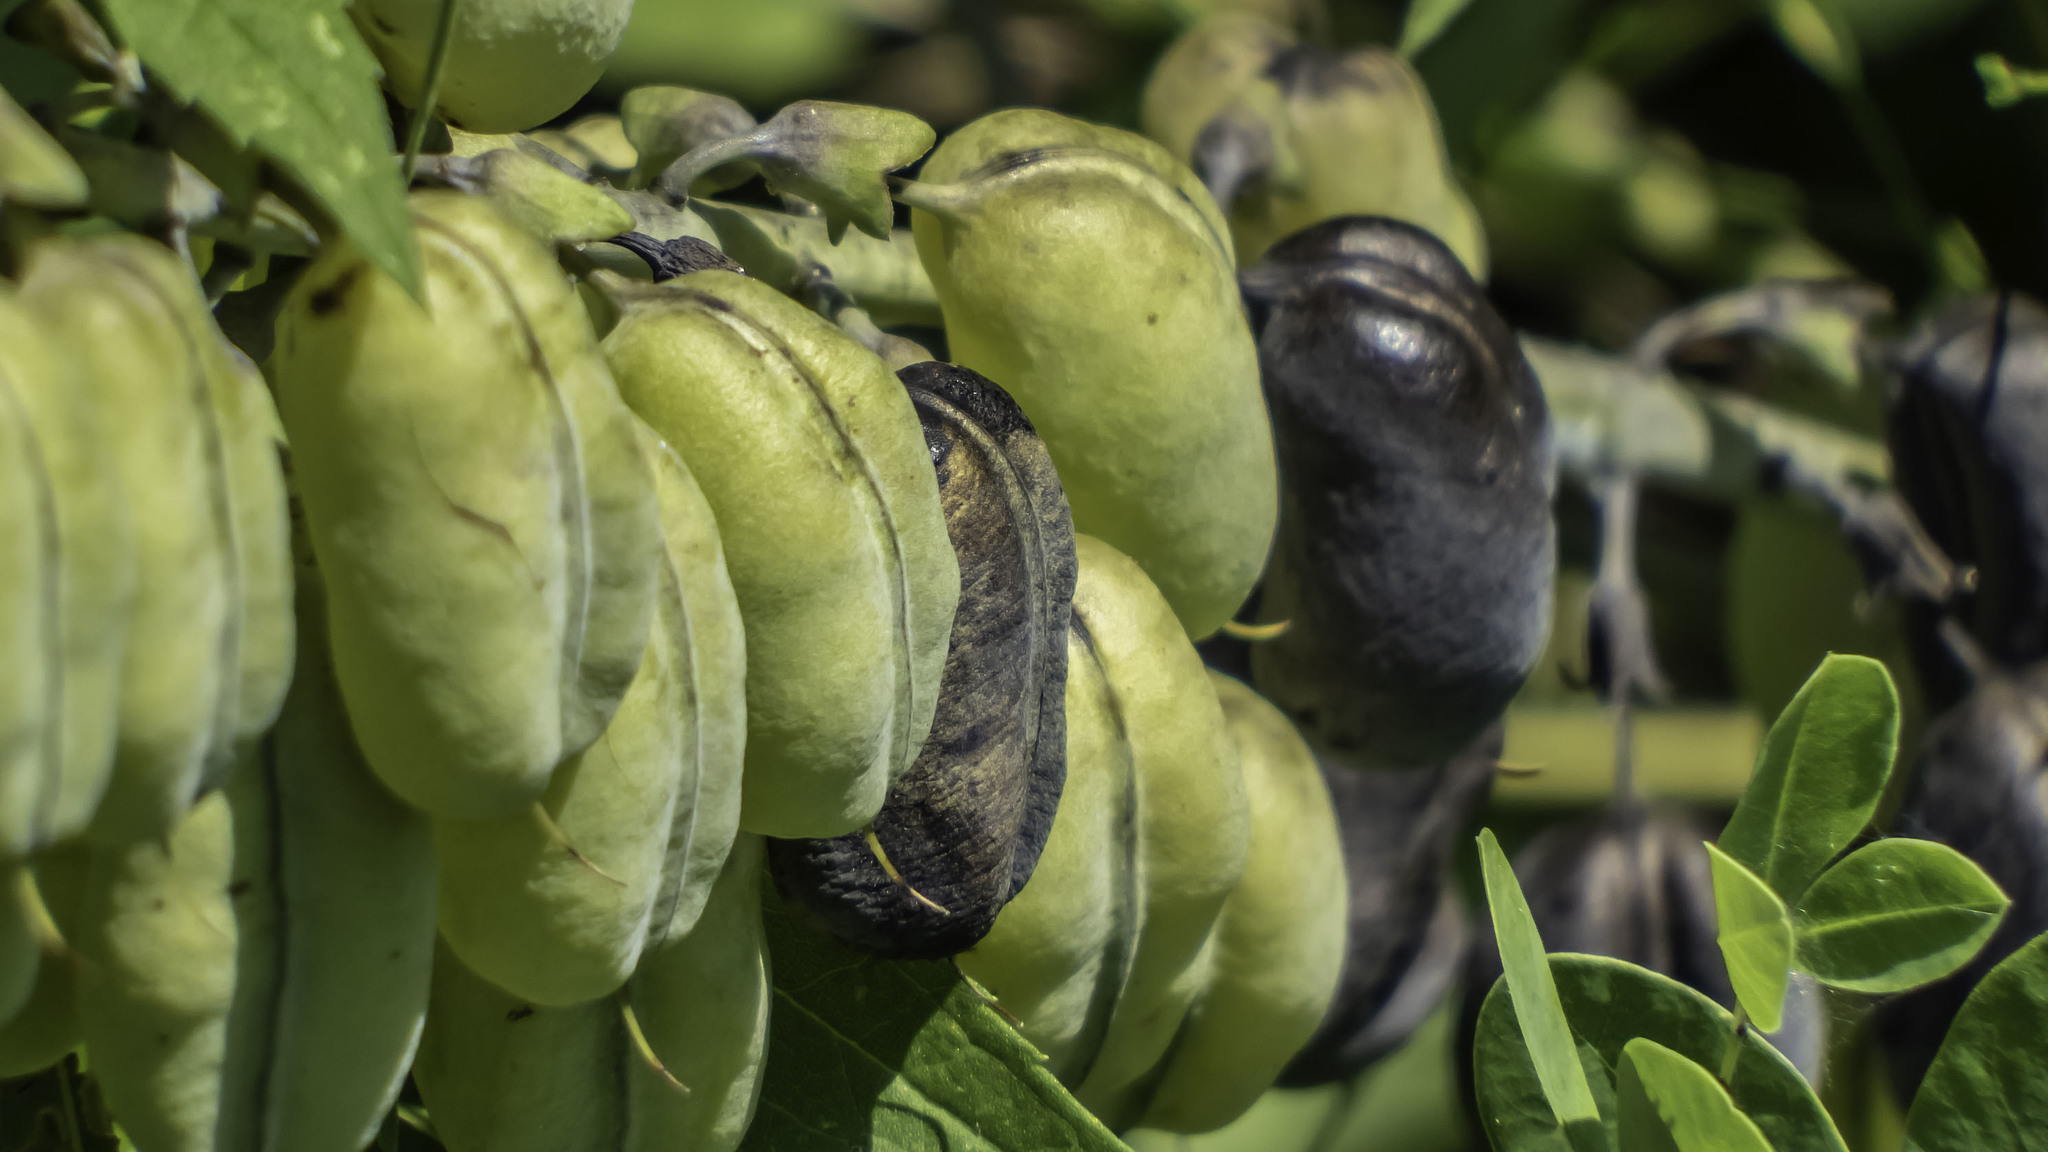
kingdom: Plantae
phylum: Tracheophyta
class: Magnoliopsida
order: Fabales
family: Fabaceae
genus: Baptisia
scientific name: Baptisia alba
